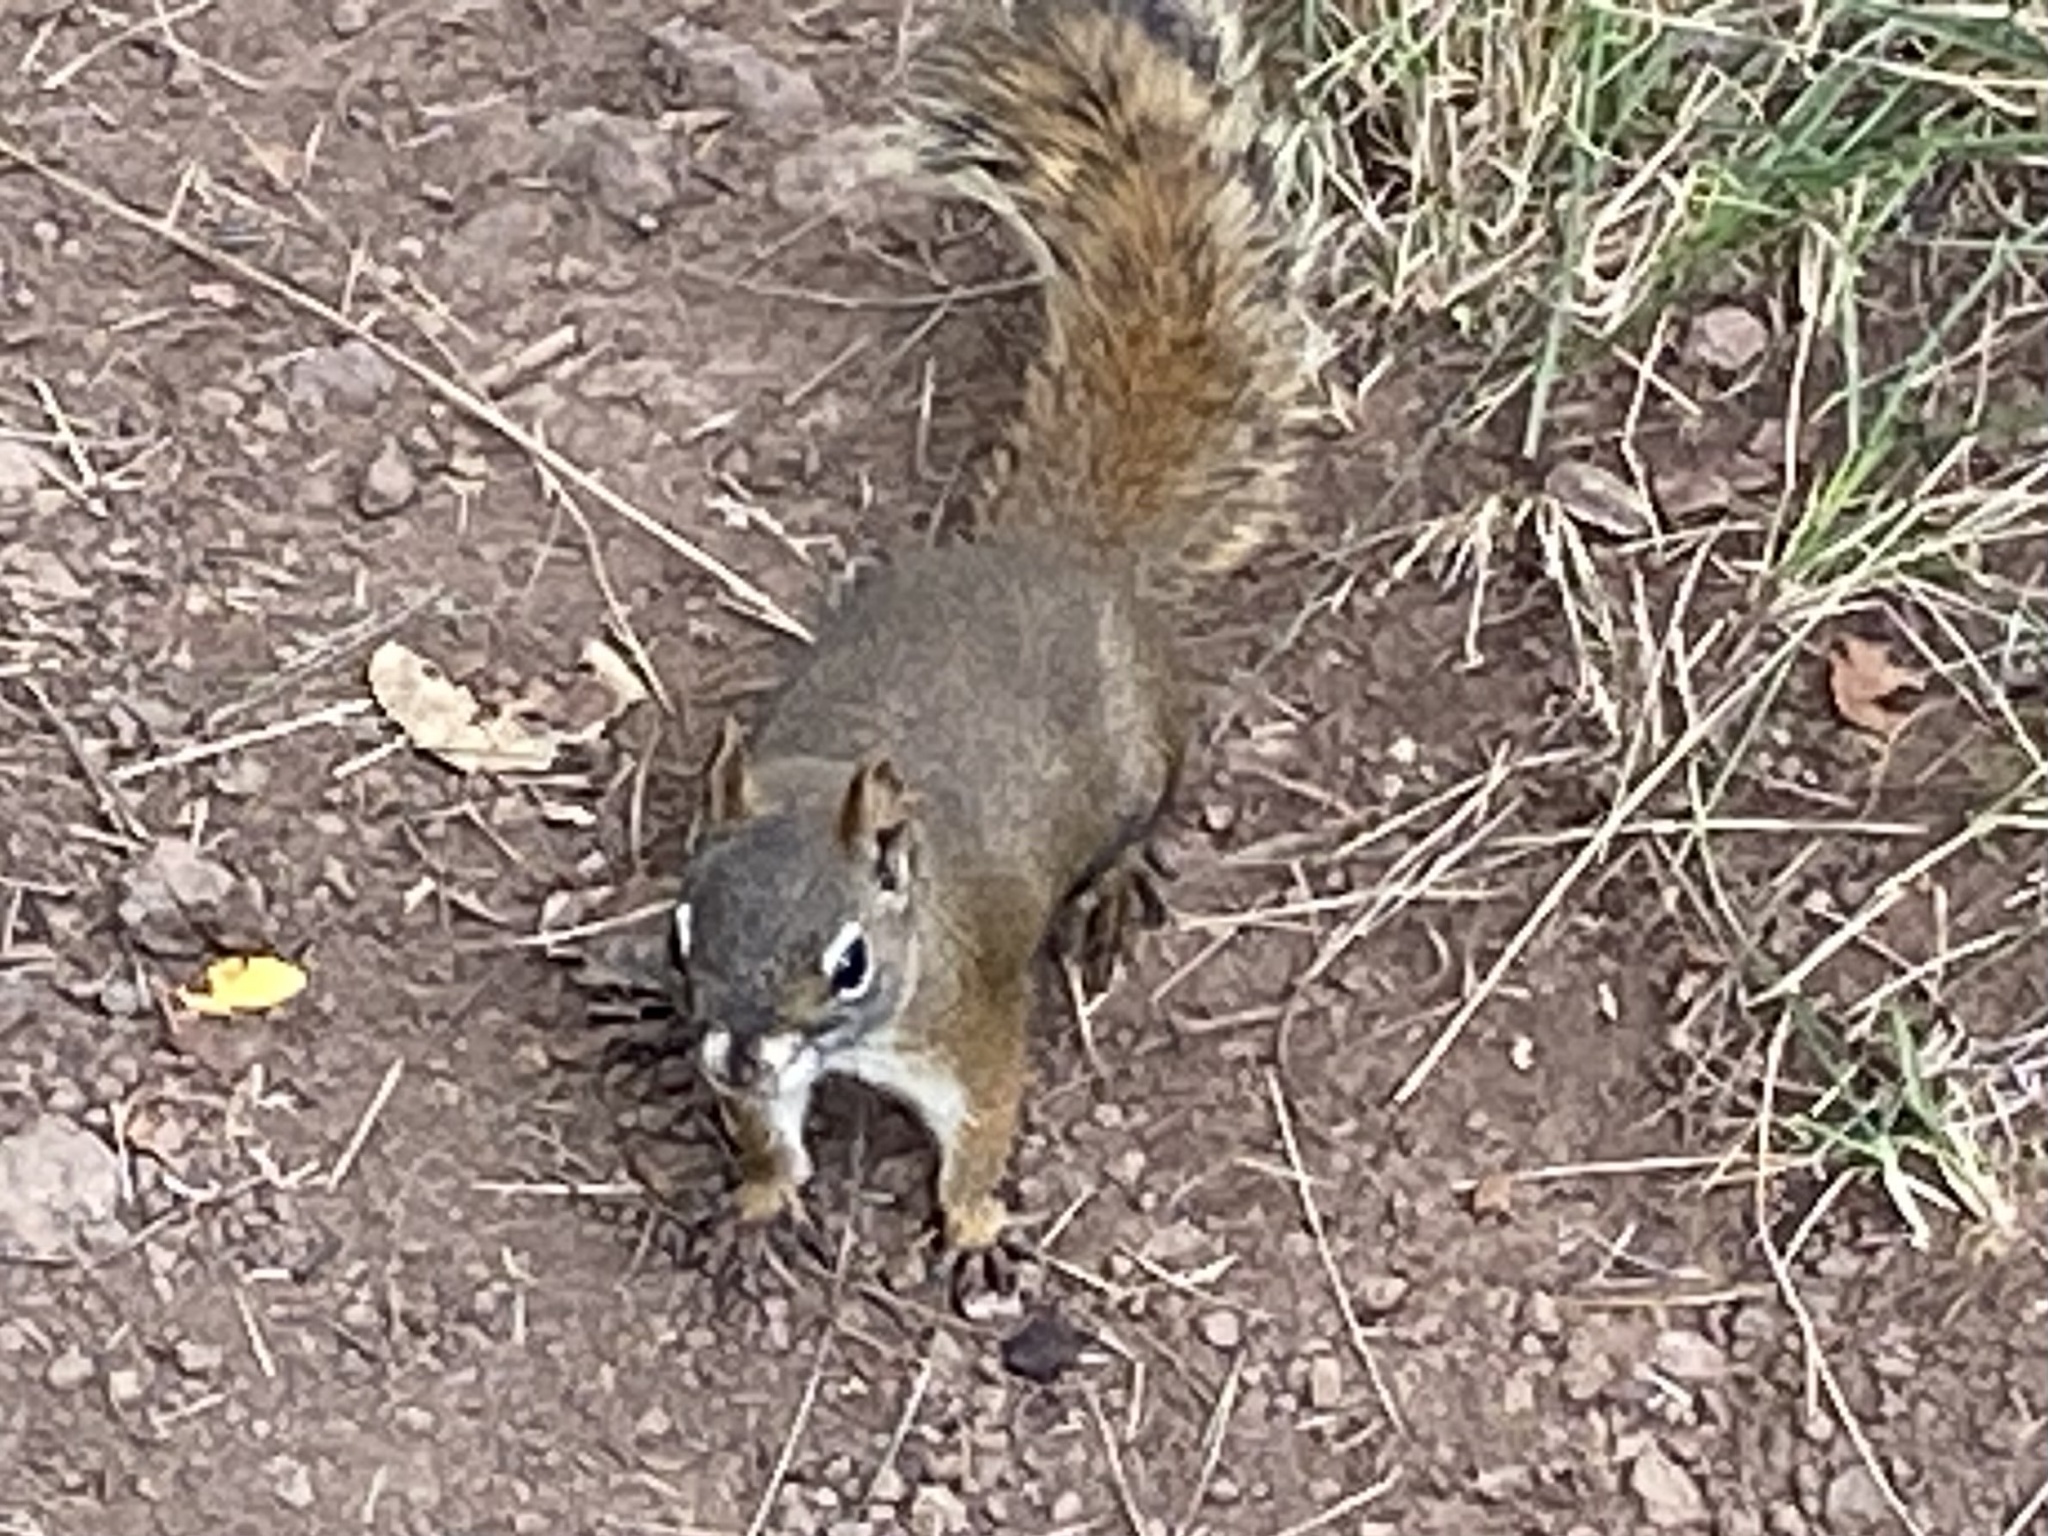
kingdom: Animalia
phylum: Chordata
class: Mammalia
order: Rodentia
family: Sciuridae
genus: Tamiasciurus
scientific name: Tamiasciurus hudsonicus
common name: Red squirrel
